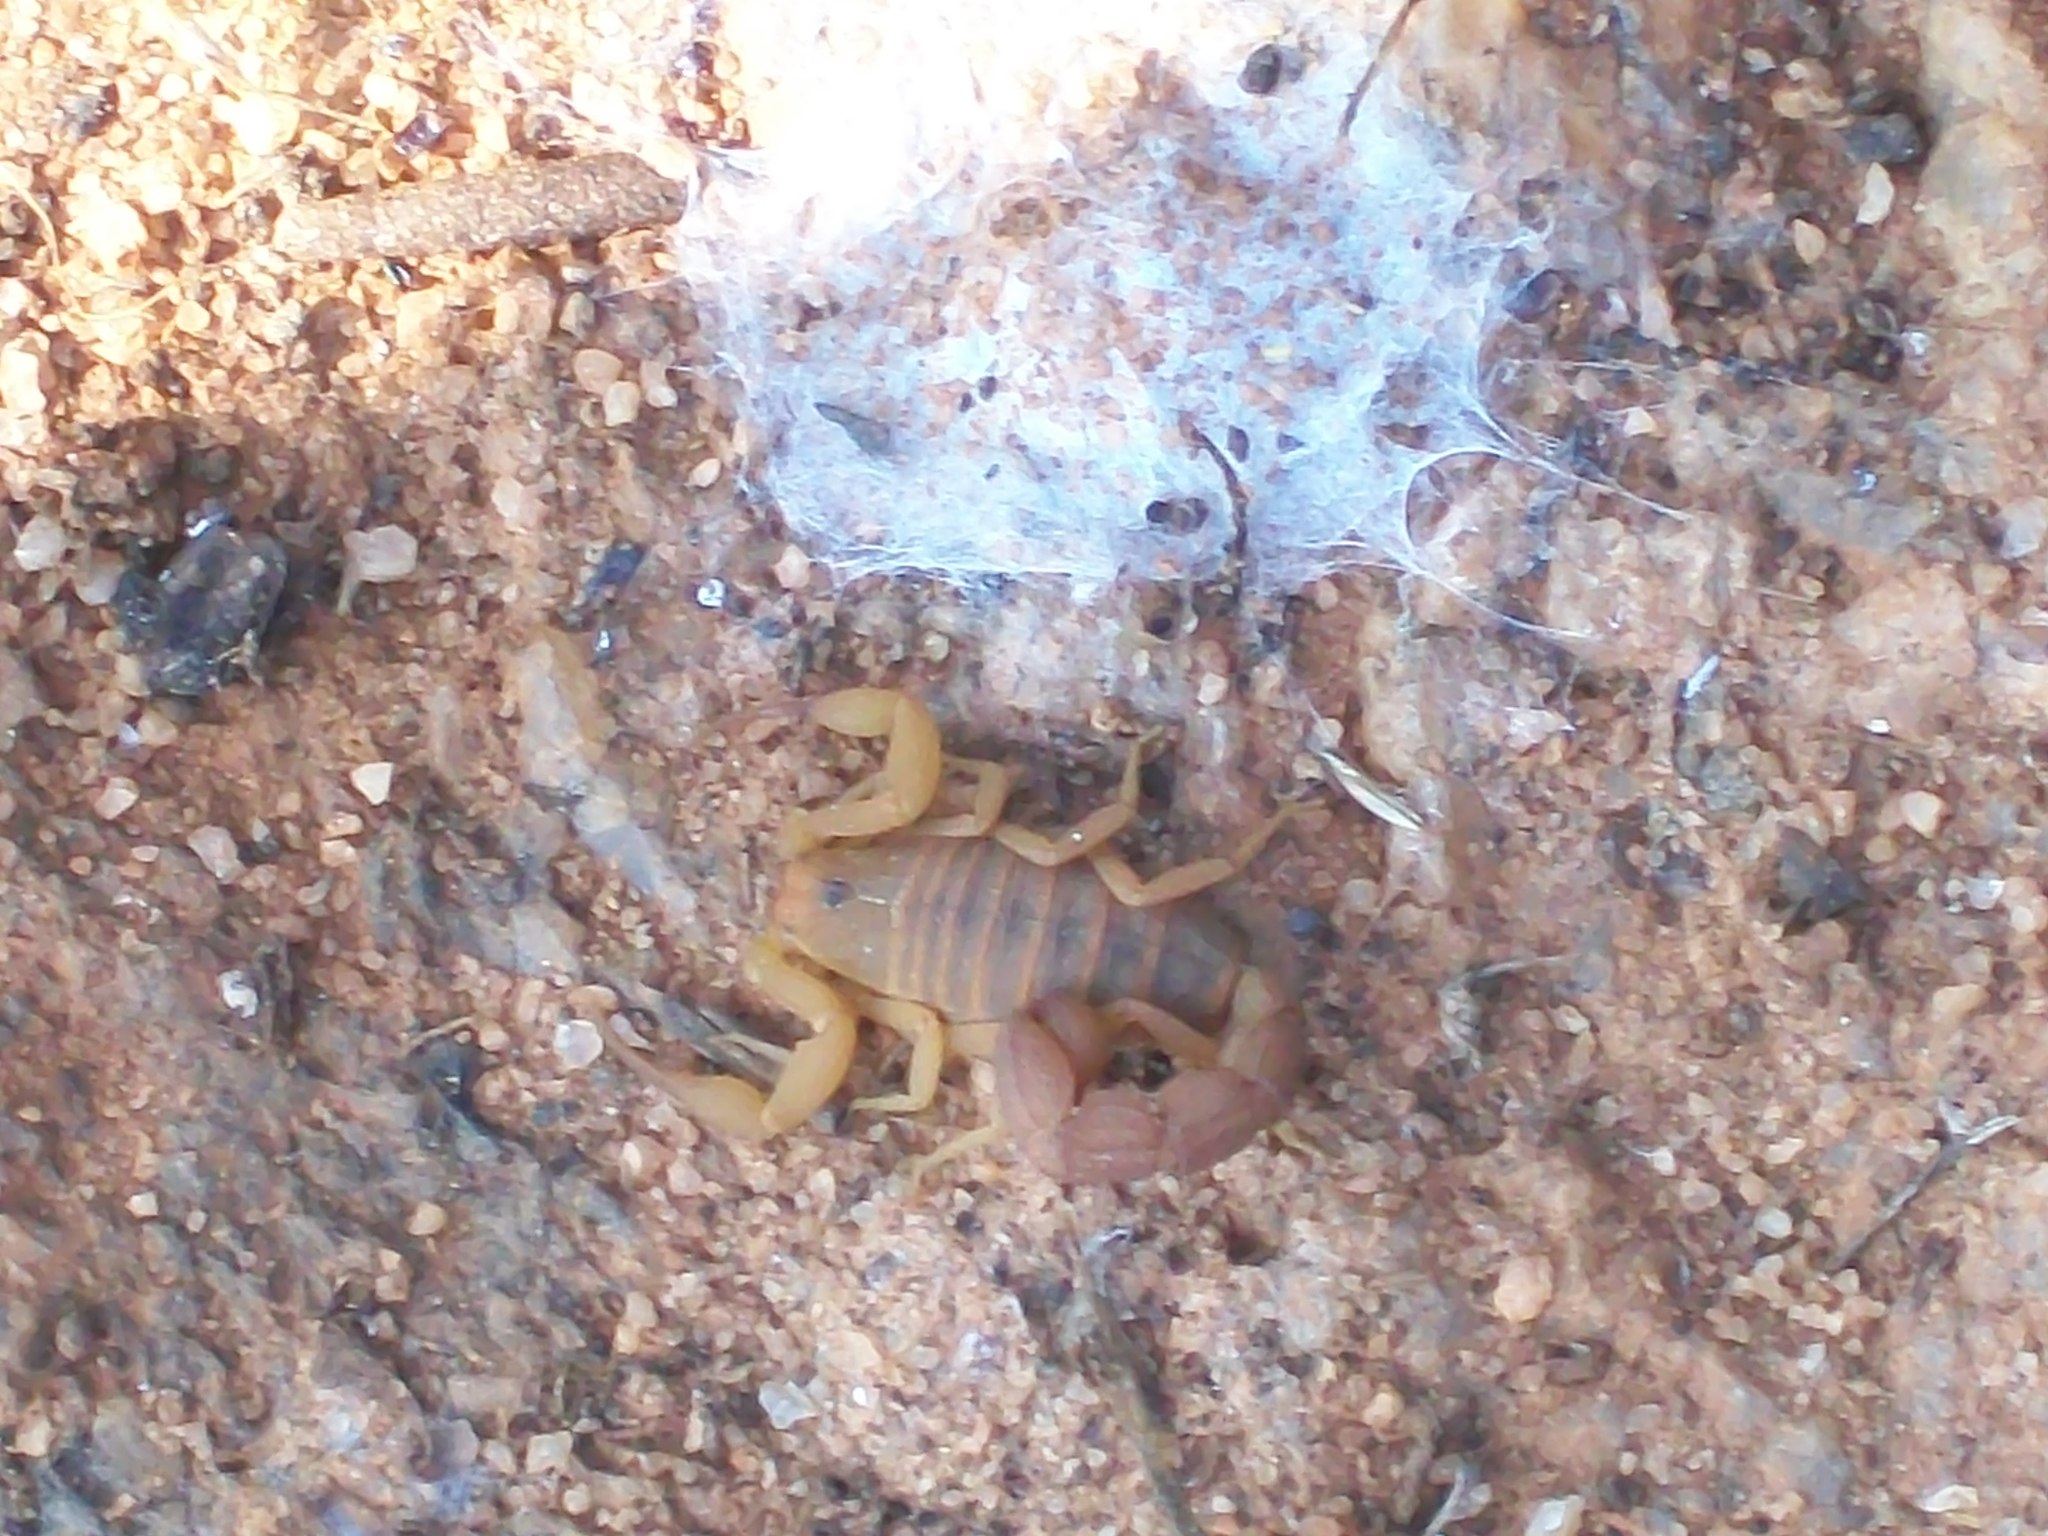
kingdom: Animalia
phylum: Arthropoda
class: Arachnida
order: Scorpiones
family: Buthidae
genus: Hottentotta
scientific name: Hottentotta rugiscutis
